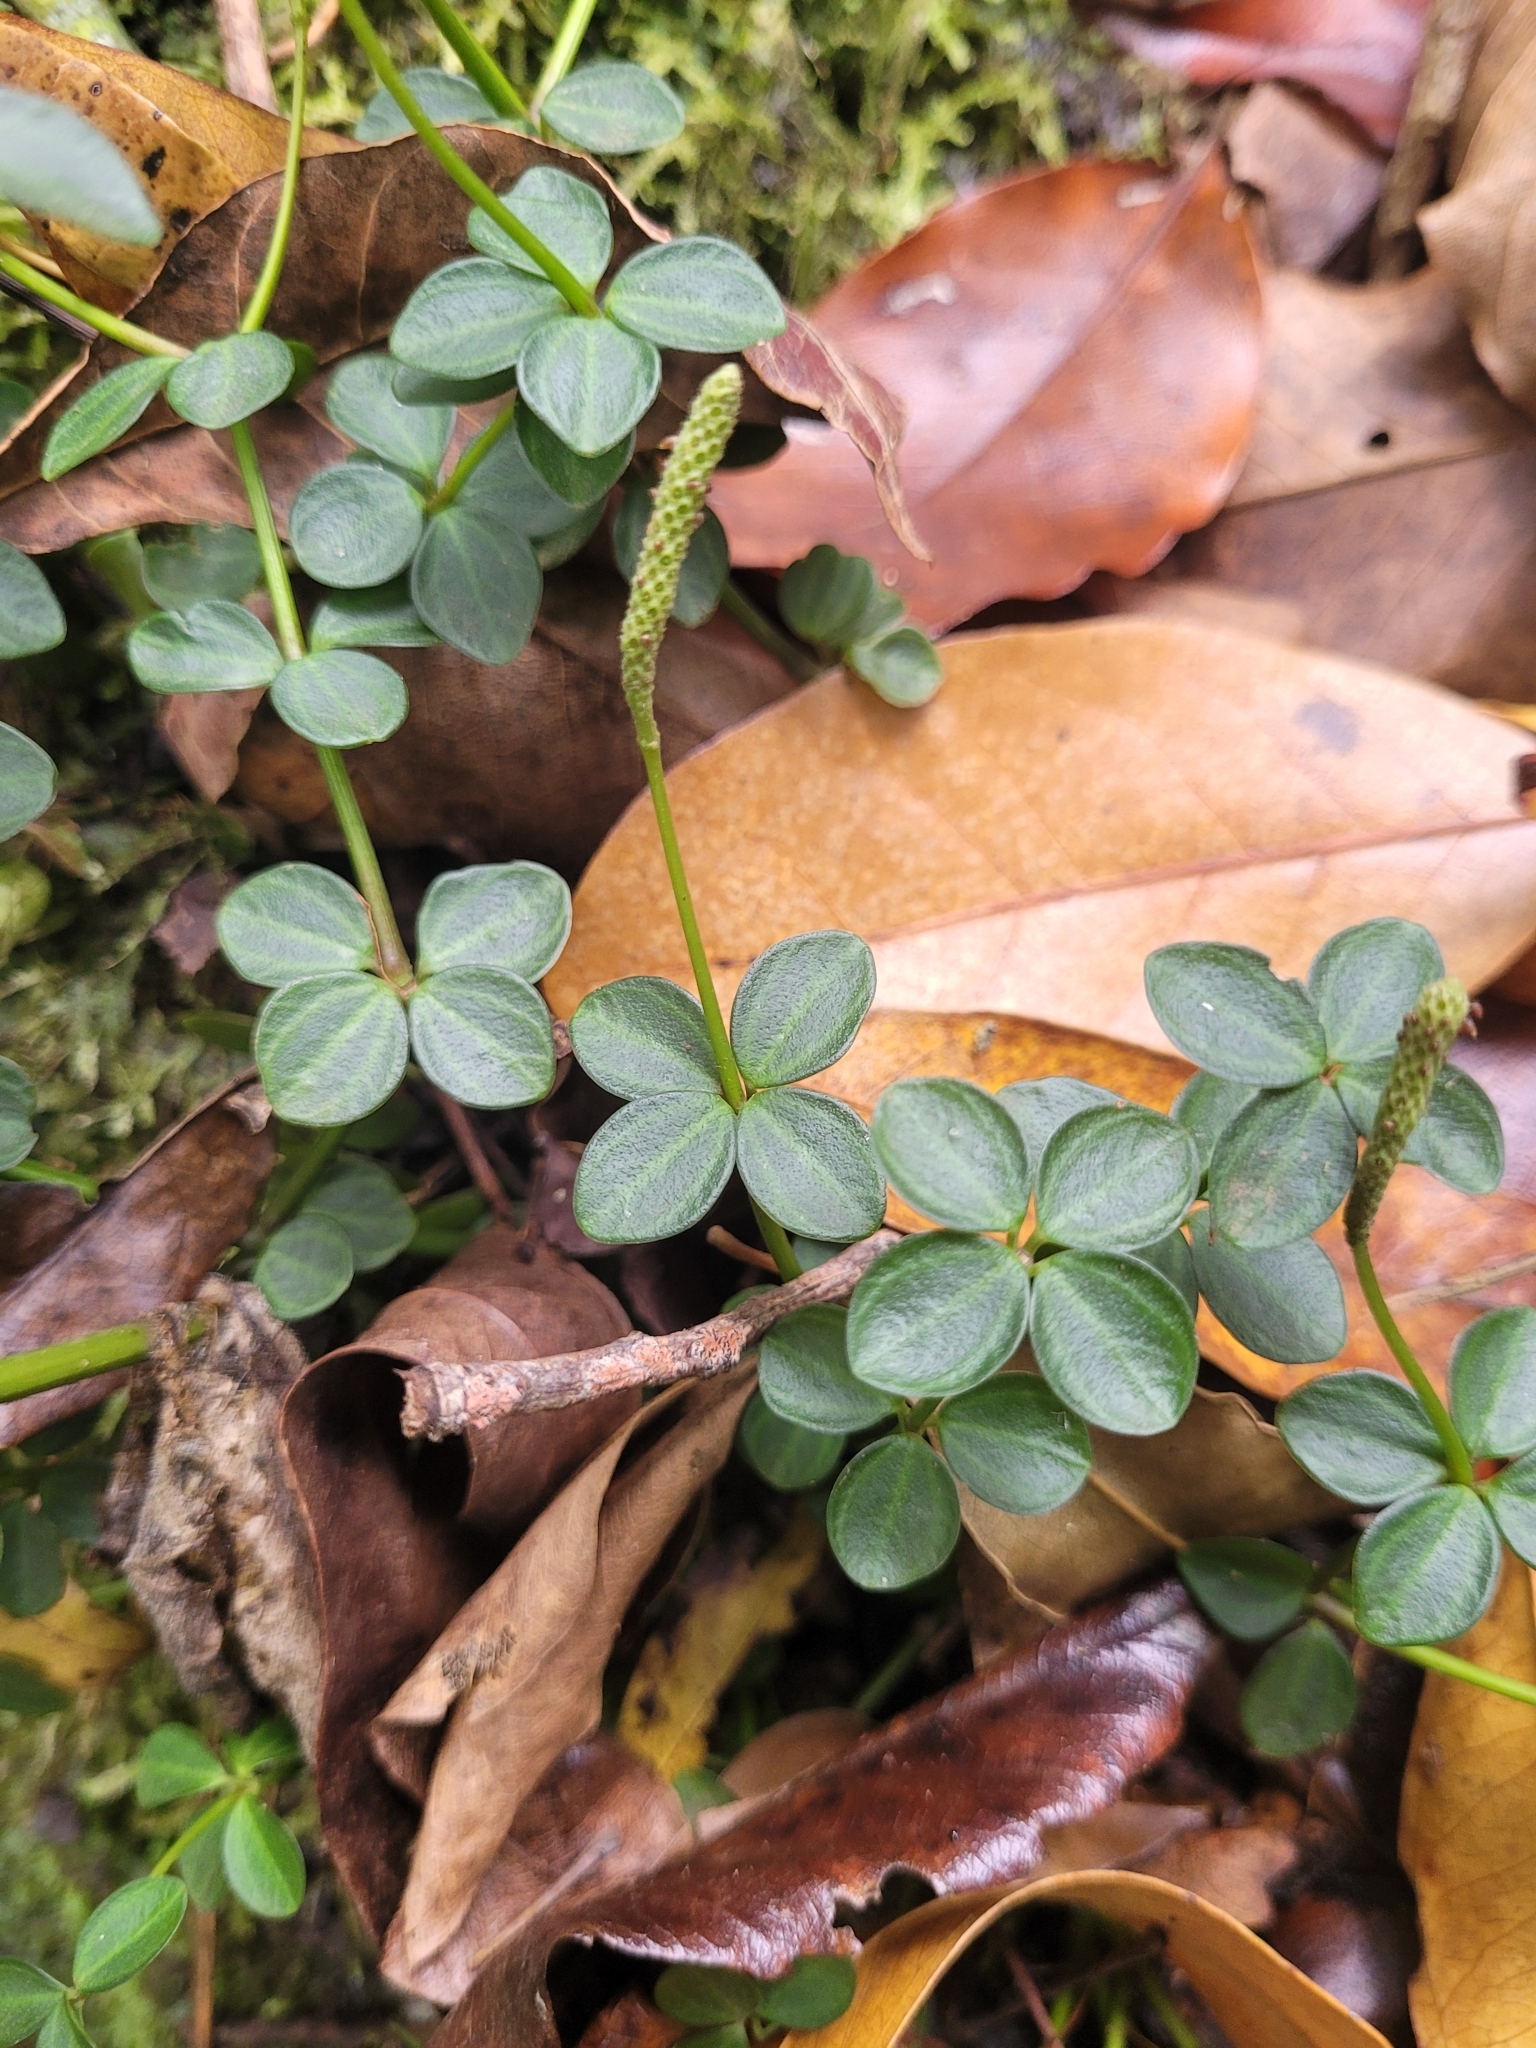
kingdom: Plantae
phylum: Tracheophyta
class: Magnoliopsida
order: Piperales
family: Piperaceae
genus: Peperomia
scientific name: Peperomia tetraphylla
